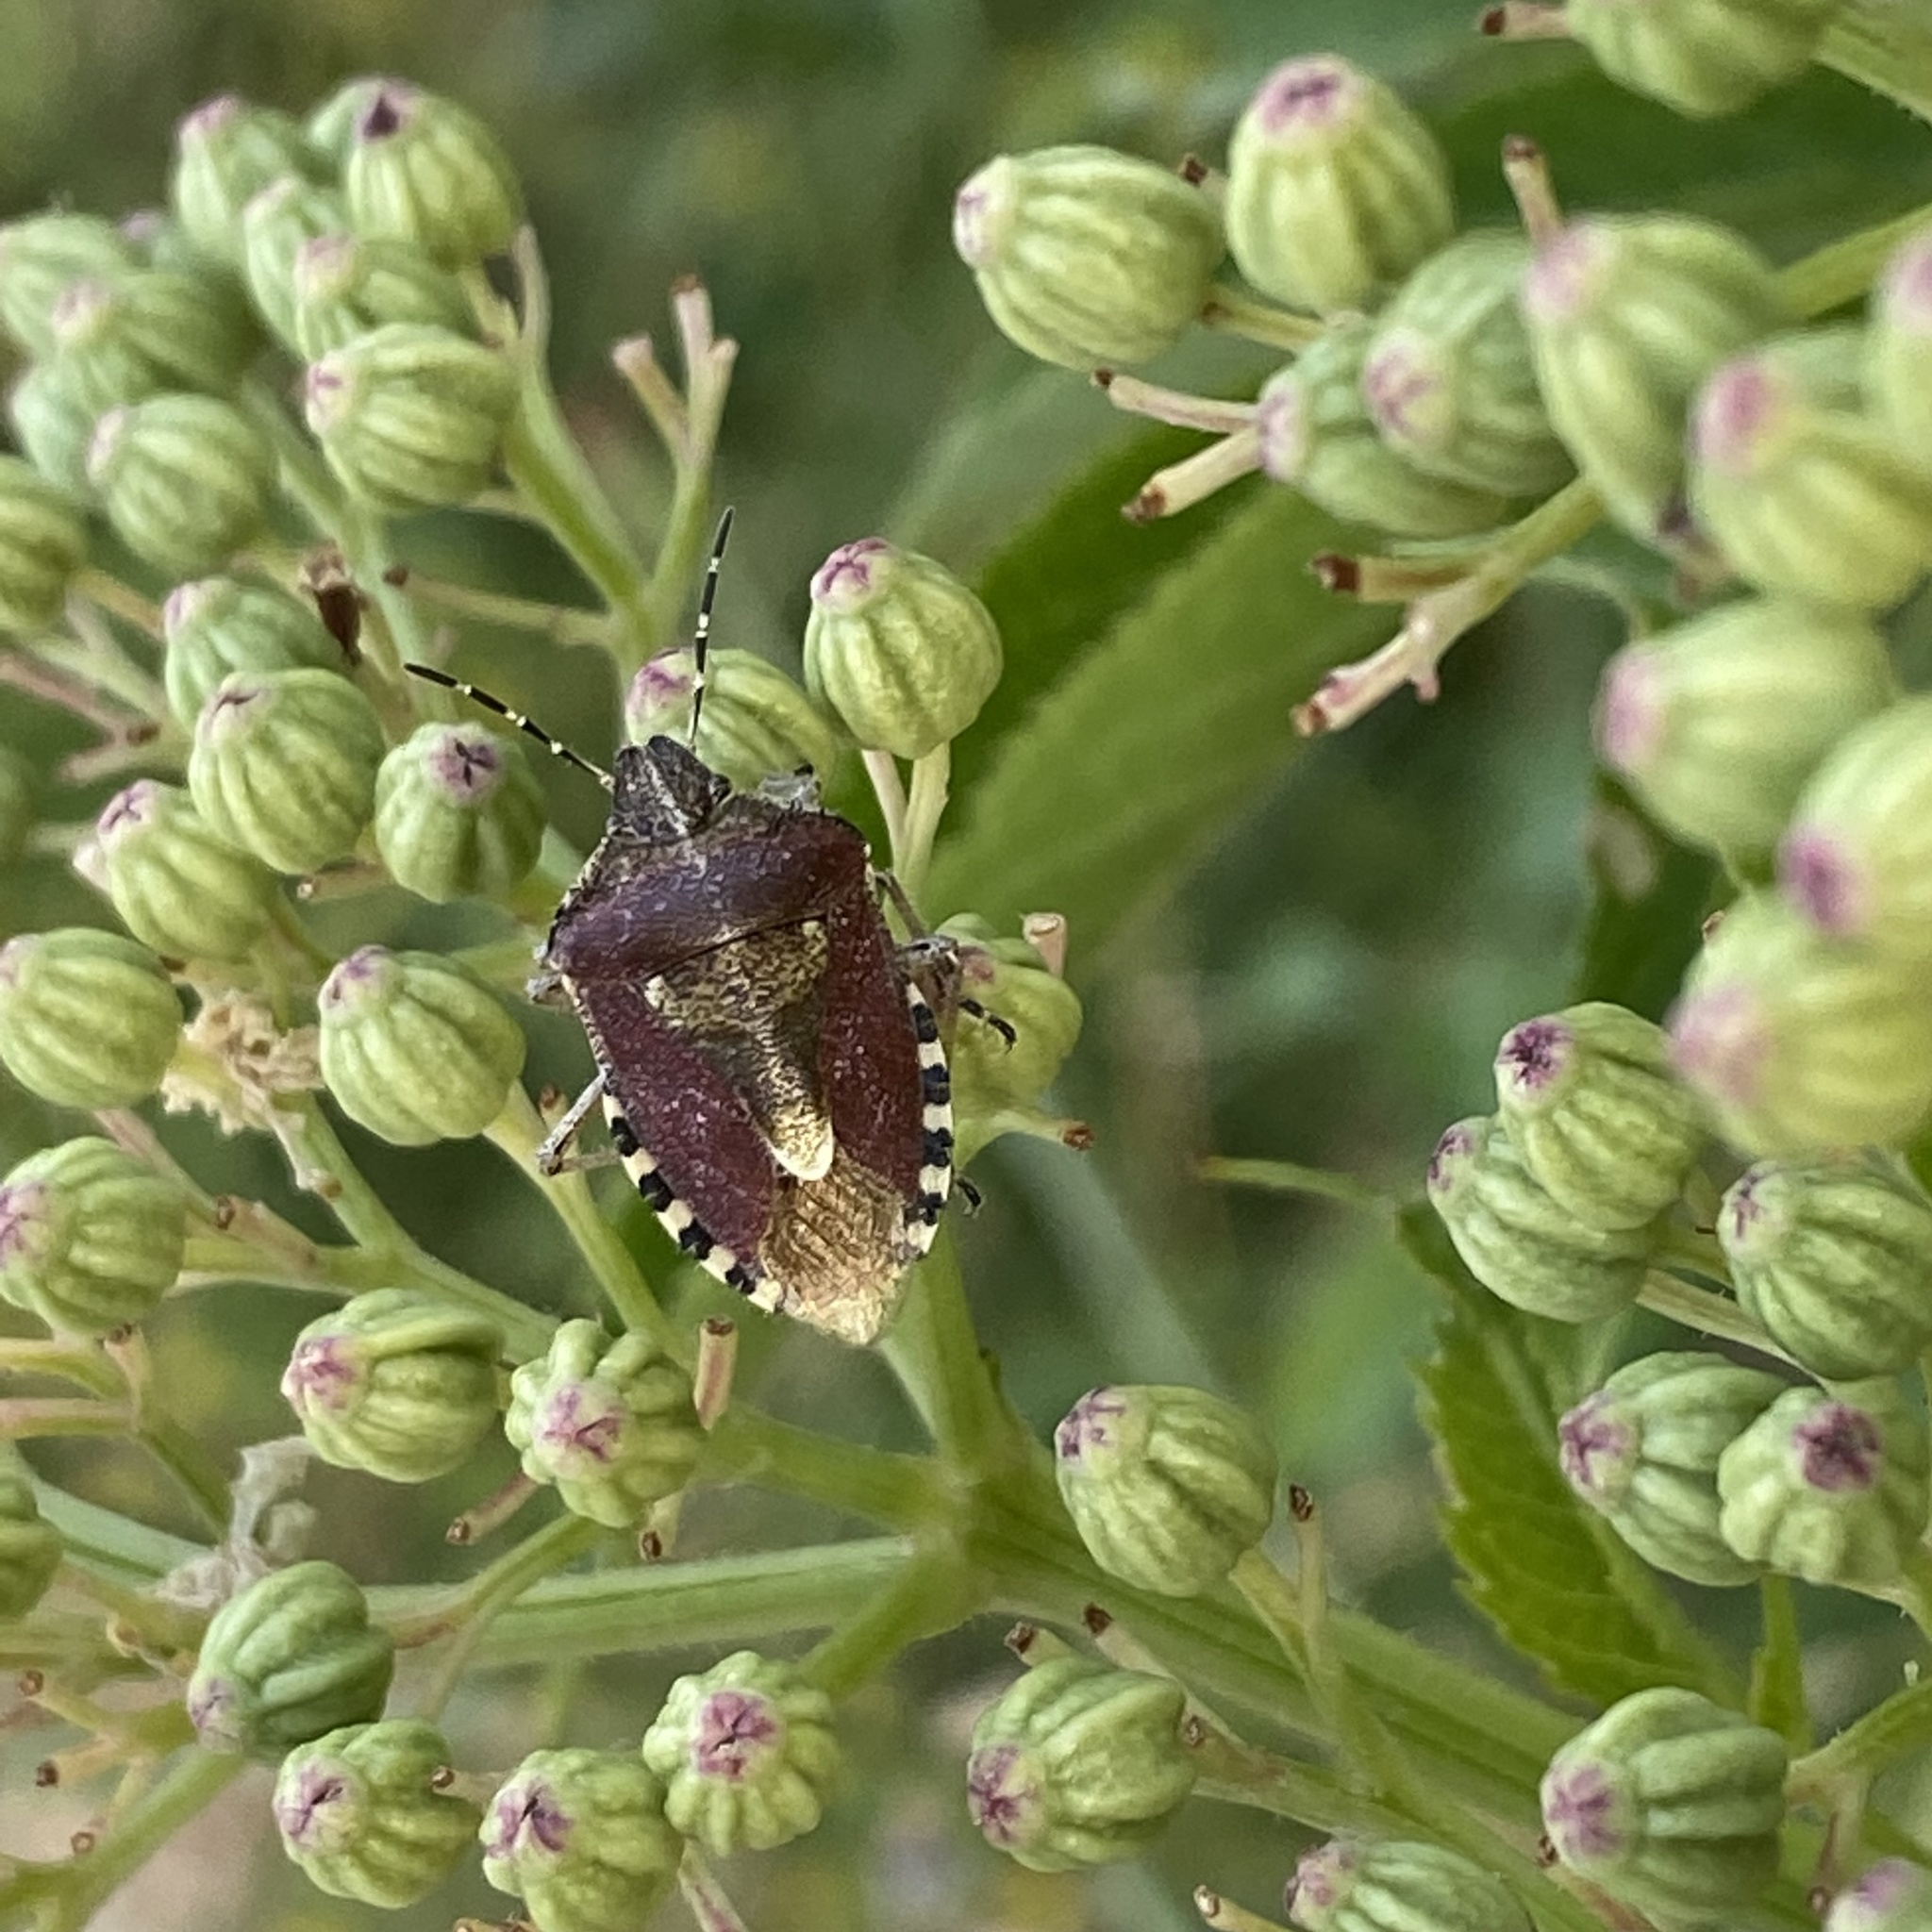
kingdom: Animalia
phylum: Arthropoda
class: Insecta
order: Hemiptera
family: Pentatomidae
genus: Dolycoris
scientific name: Dolycoris baccarum
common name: Sloe bug
